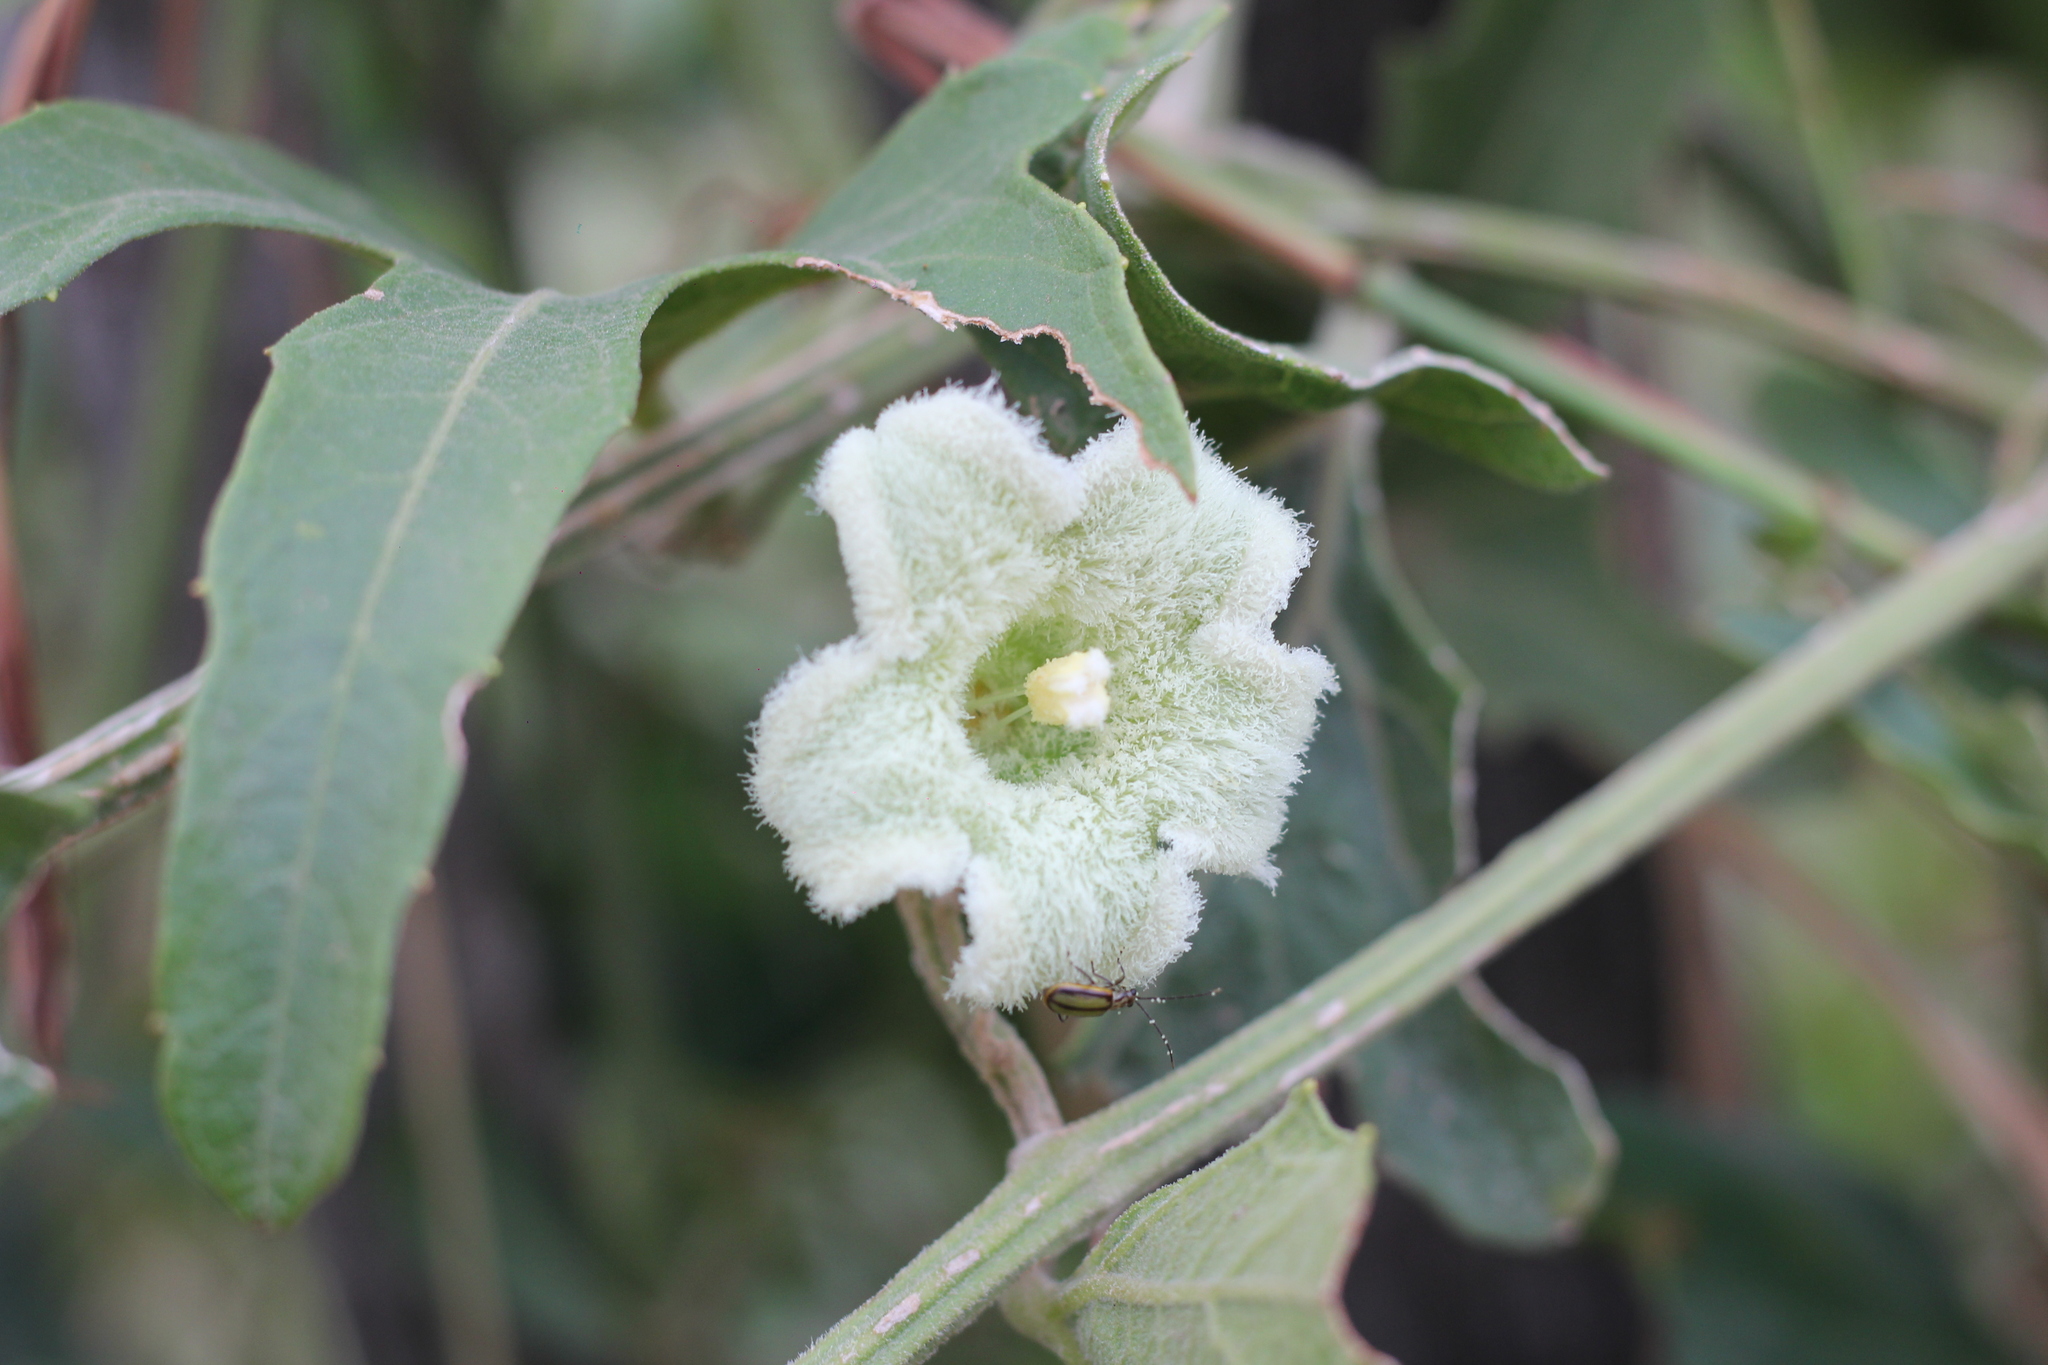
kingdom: Plantae
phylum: Tracheophyta
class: Magnoliopsida
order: Cucurbitales
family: Cucurbitaceae
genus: Cayaponia
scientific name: Cayaponia podantha
